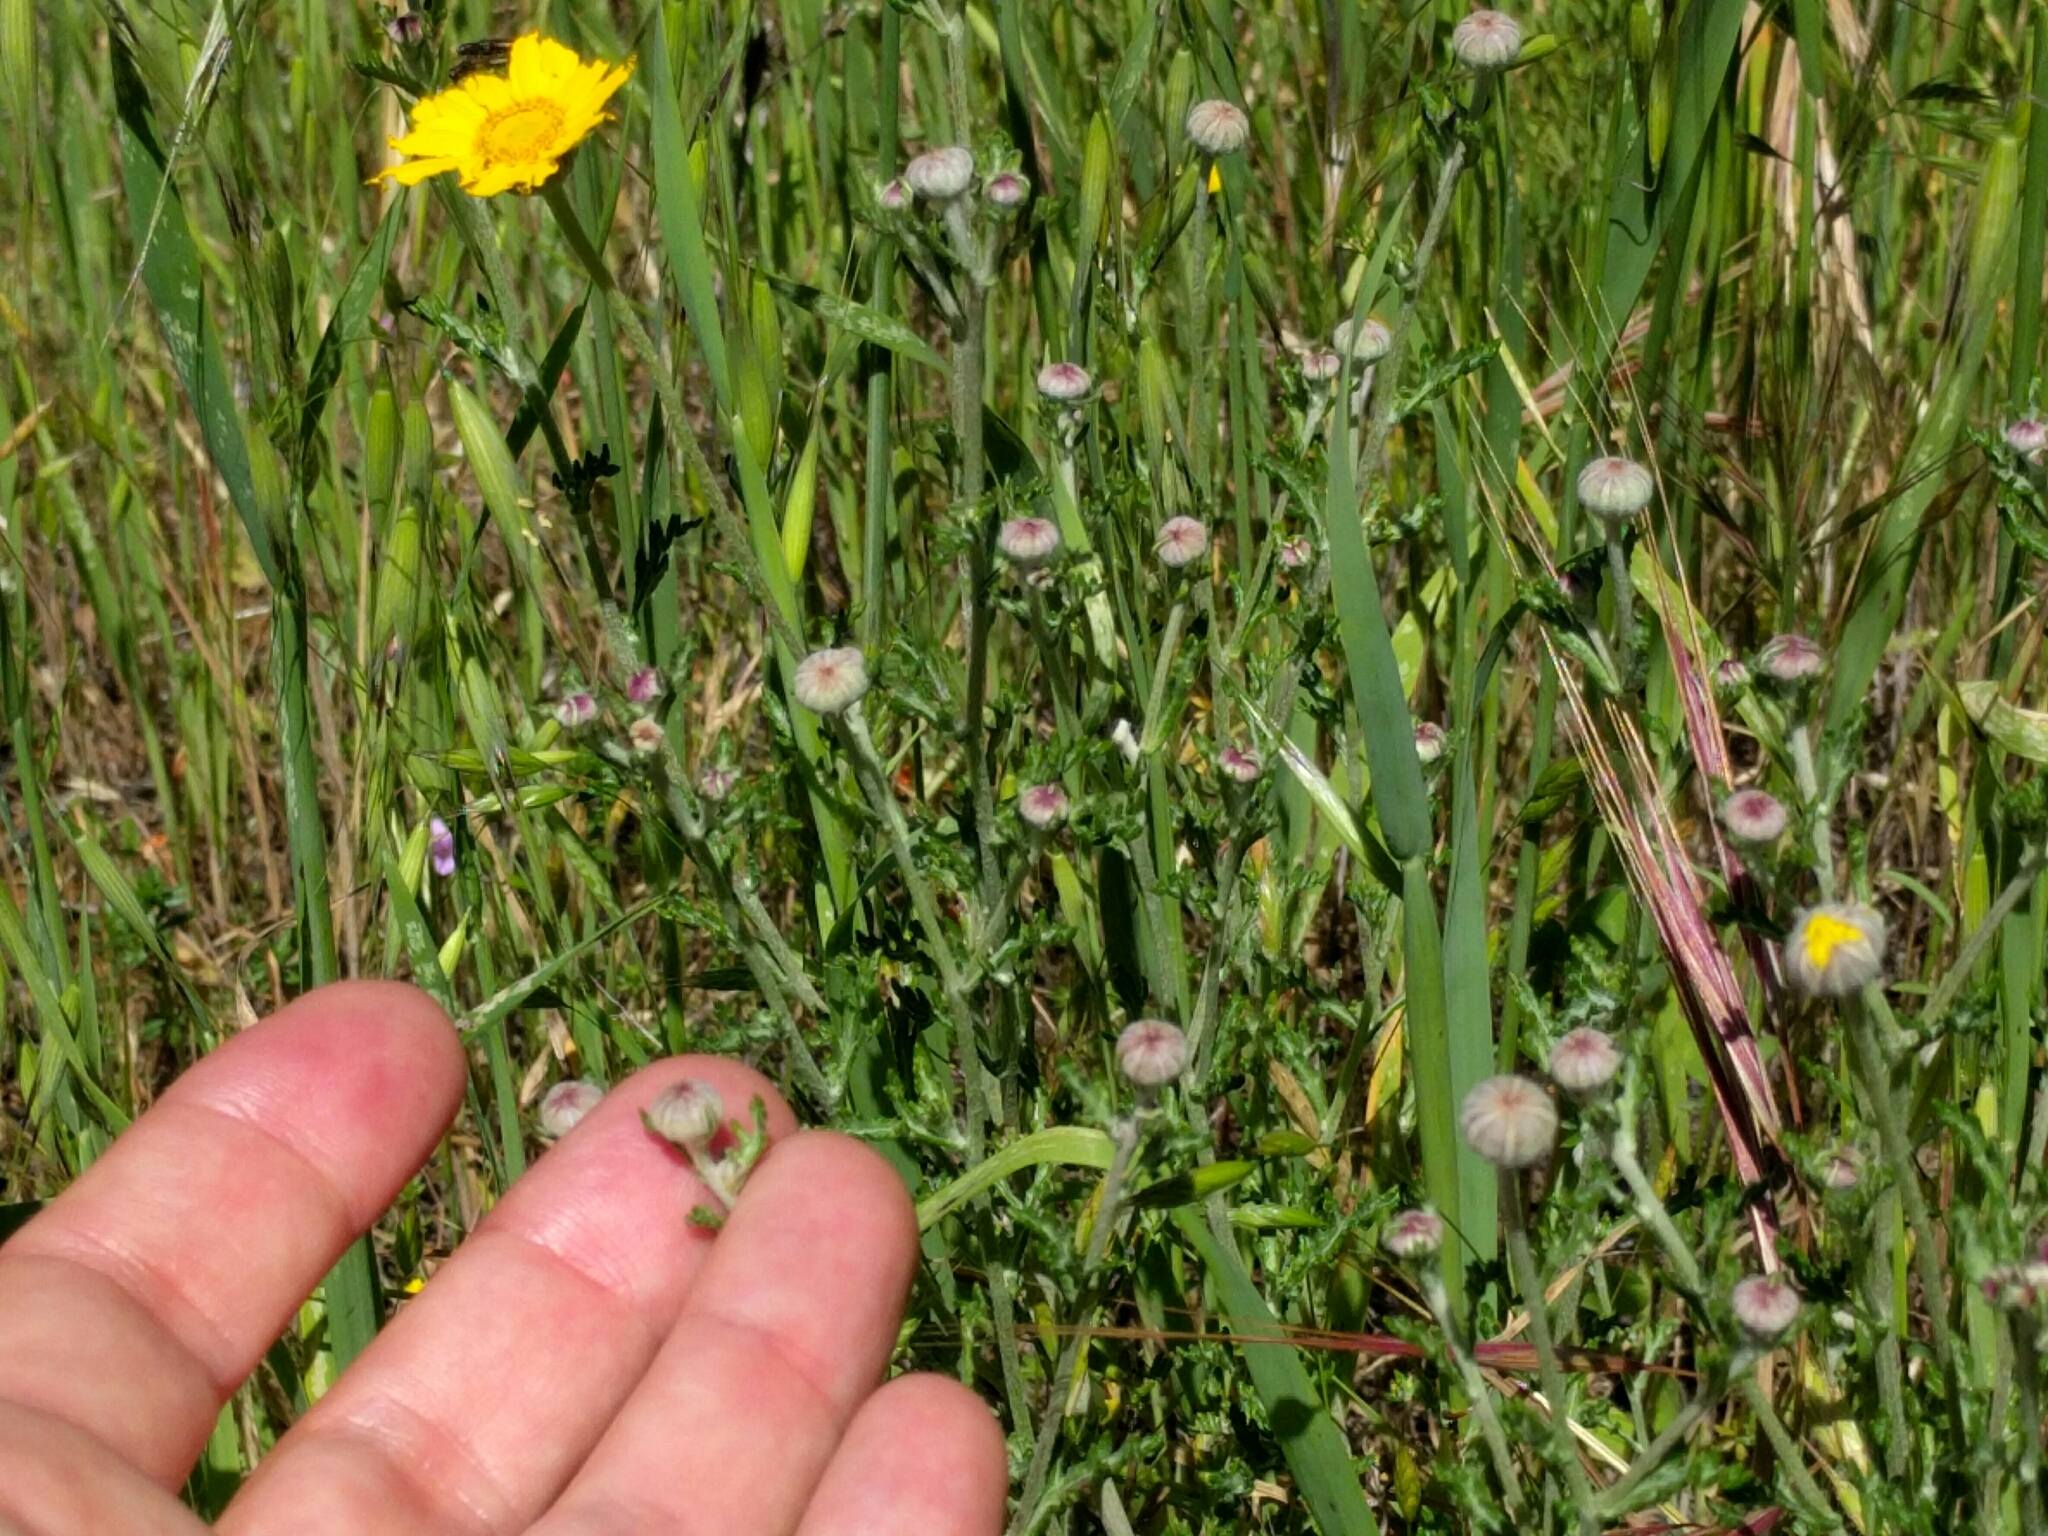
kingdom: Plantae
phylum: Tracheophyta
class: Magnoliopsida
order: Asterales
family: Asteraceae
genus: Eriophyllum
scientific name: Eriophyllum lanatum
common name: Common woolly-sunflower
